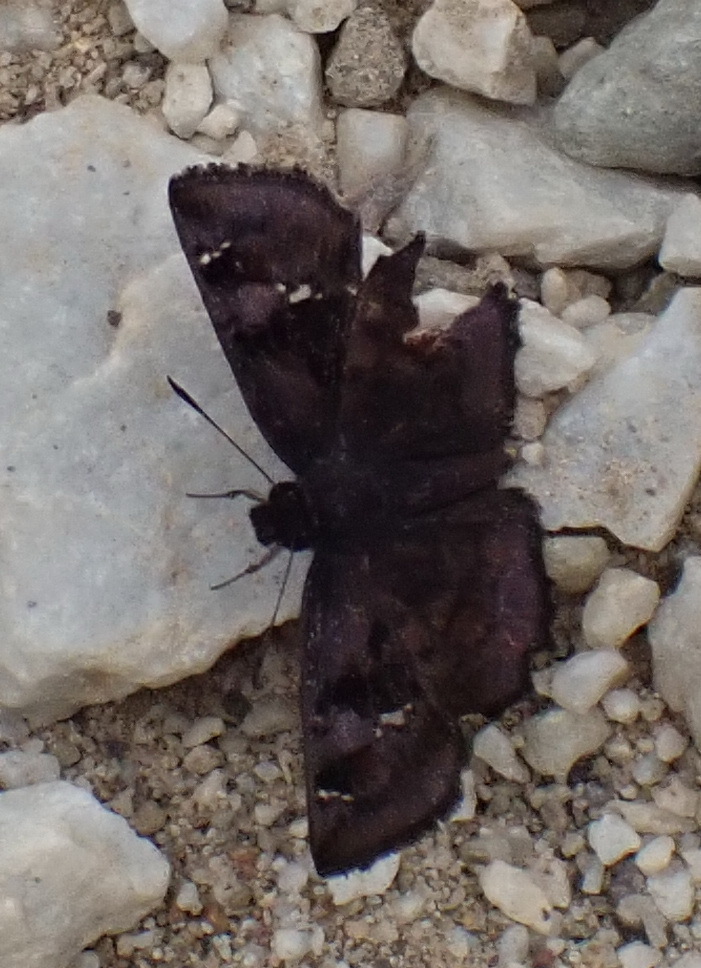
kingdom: Animalia
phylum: Arthropoda
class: Insecta
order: Lepidoptera
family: Hesperiidae
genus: Eretis
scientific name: Eretis umbra
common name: Small marbled elf
